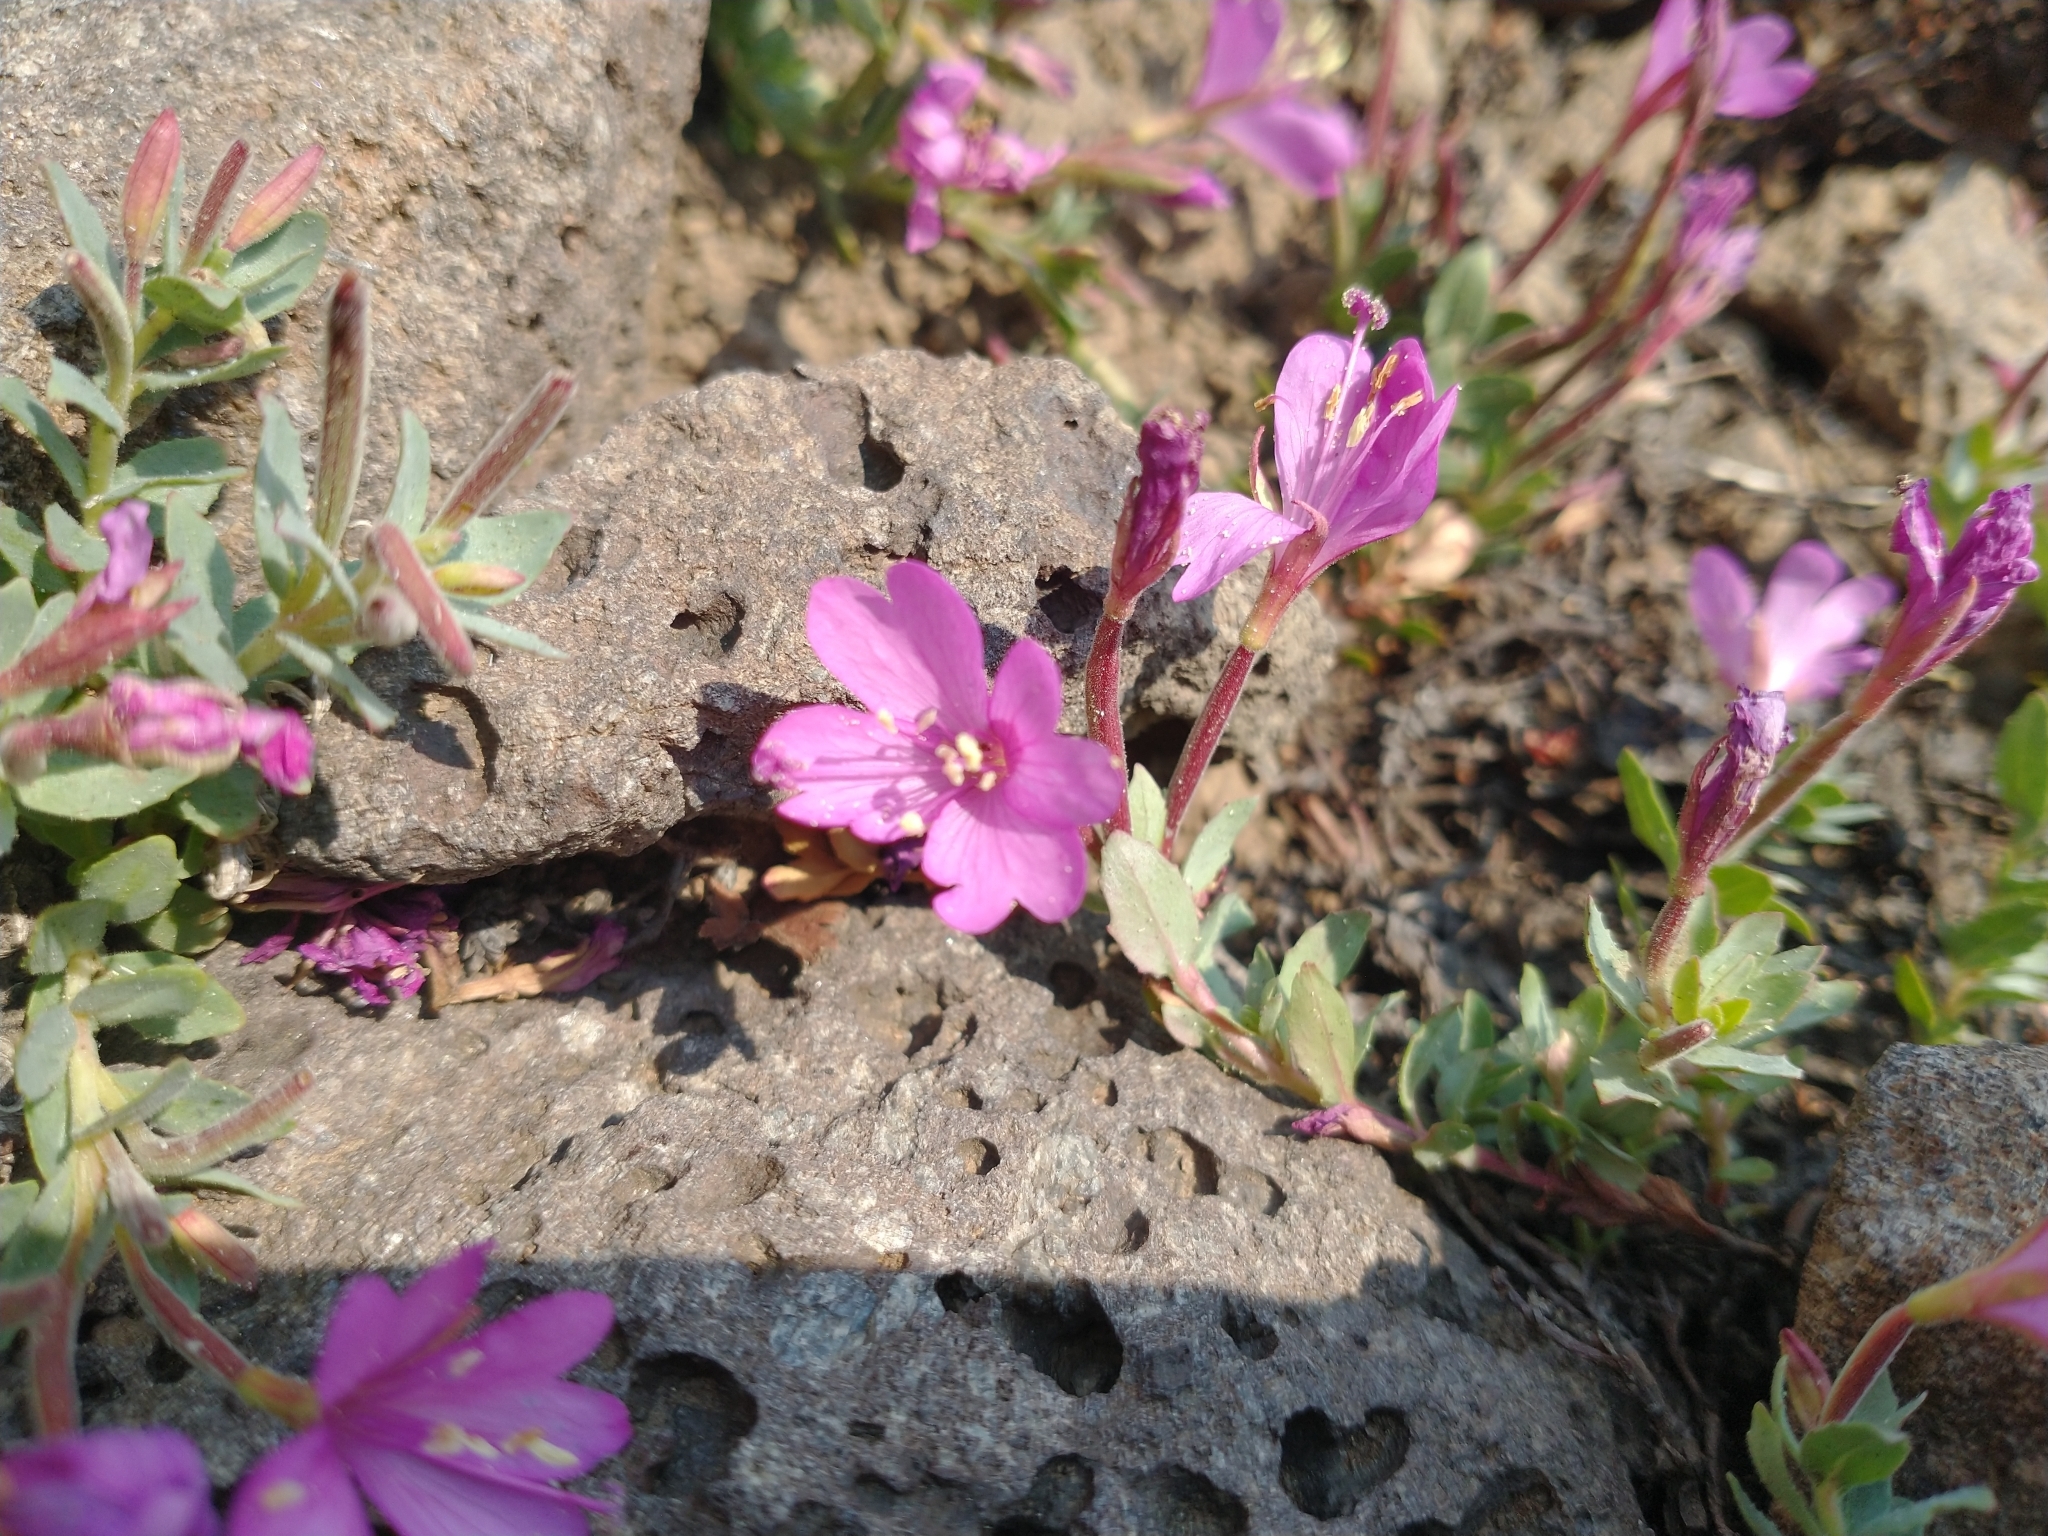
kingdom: Plantae
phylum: Tracheophyta
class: Magnoliopsida
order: Myrtales
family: Onagraceae
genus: Epilobium
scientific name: Epilobium obcordatum
